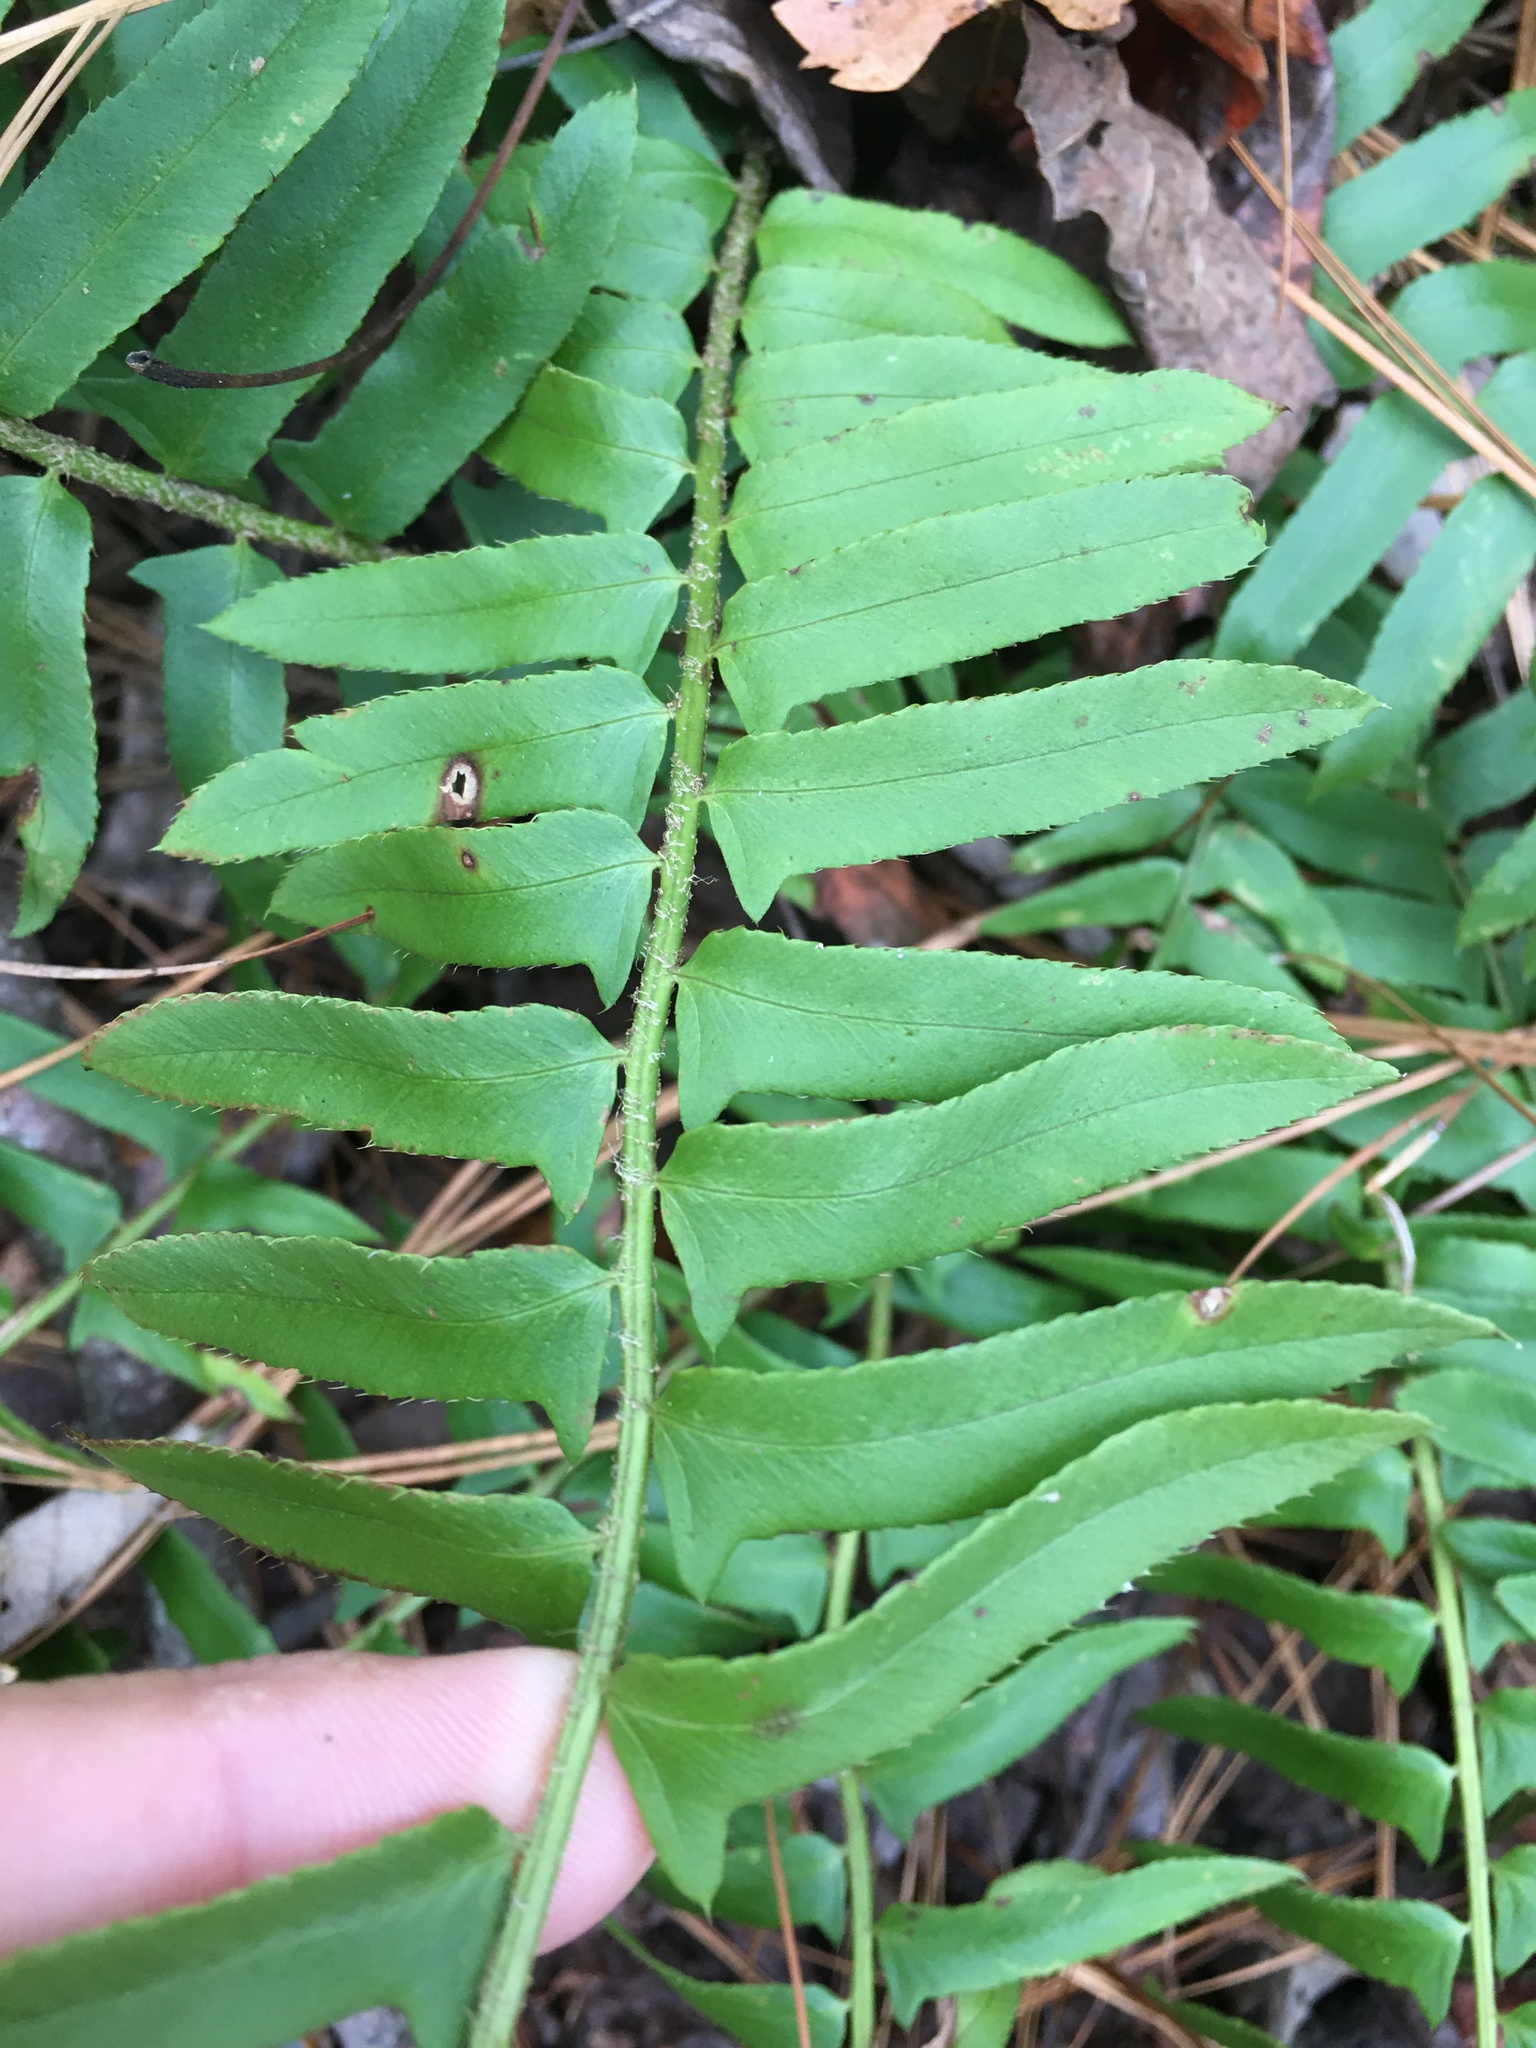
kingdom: Plantae
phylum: Tracheophyta
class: Polypodiopsida
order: Polypodiales
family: Dryopteridaceae
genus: Polystichum
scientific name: Polystichum acrostichoides
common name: Christmas fern
